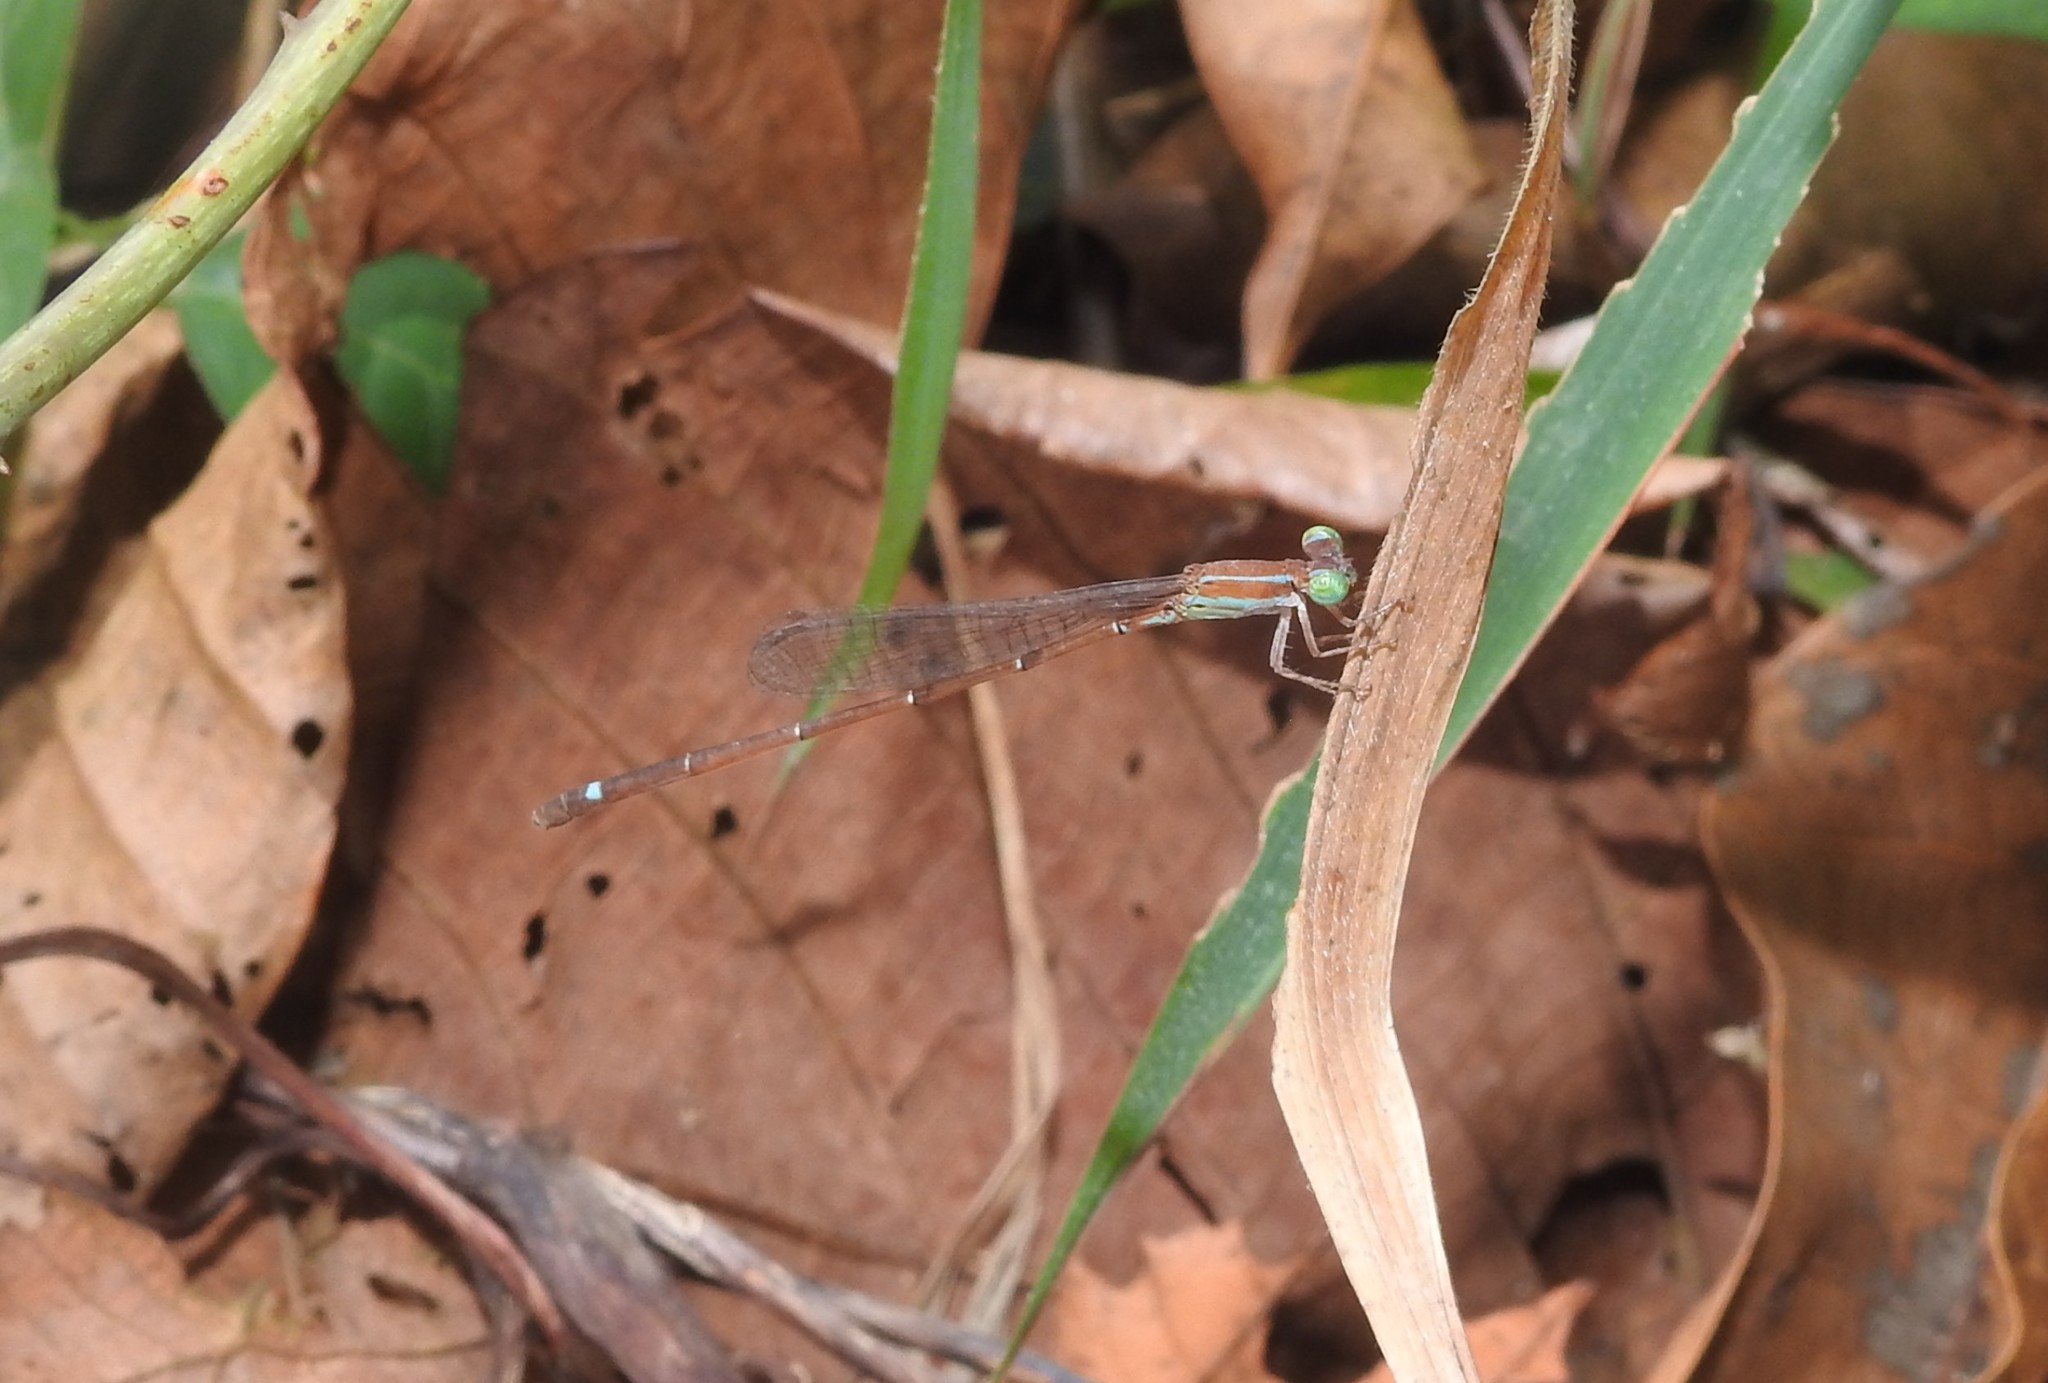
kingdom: Animalia
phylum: Arthropoda
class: Insecta
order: Odonata
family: Coenagrionidae
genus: Mortonagrion
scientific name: Mortonagrion varralli
